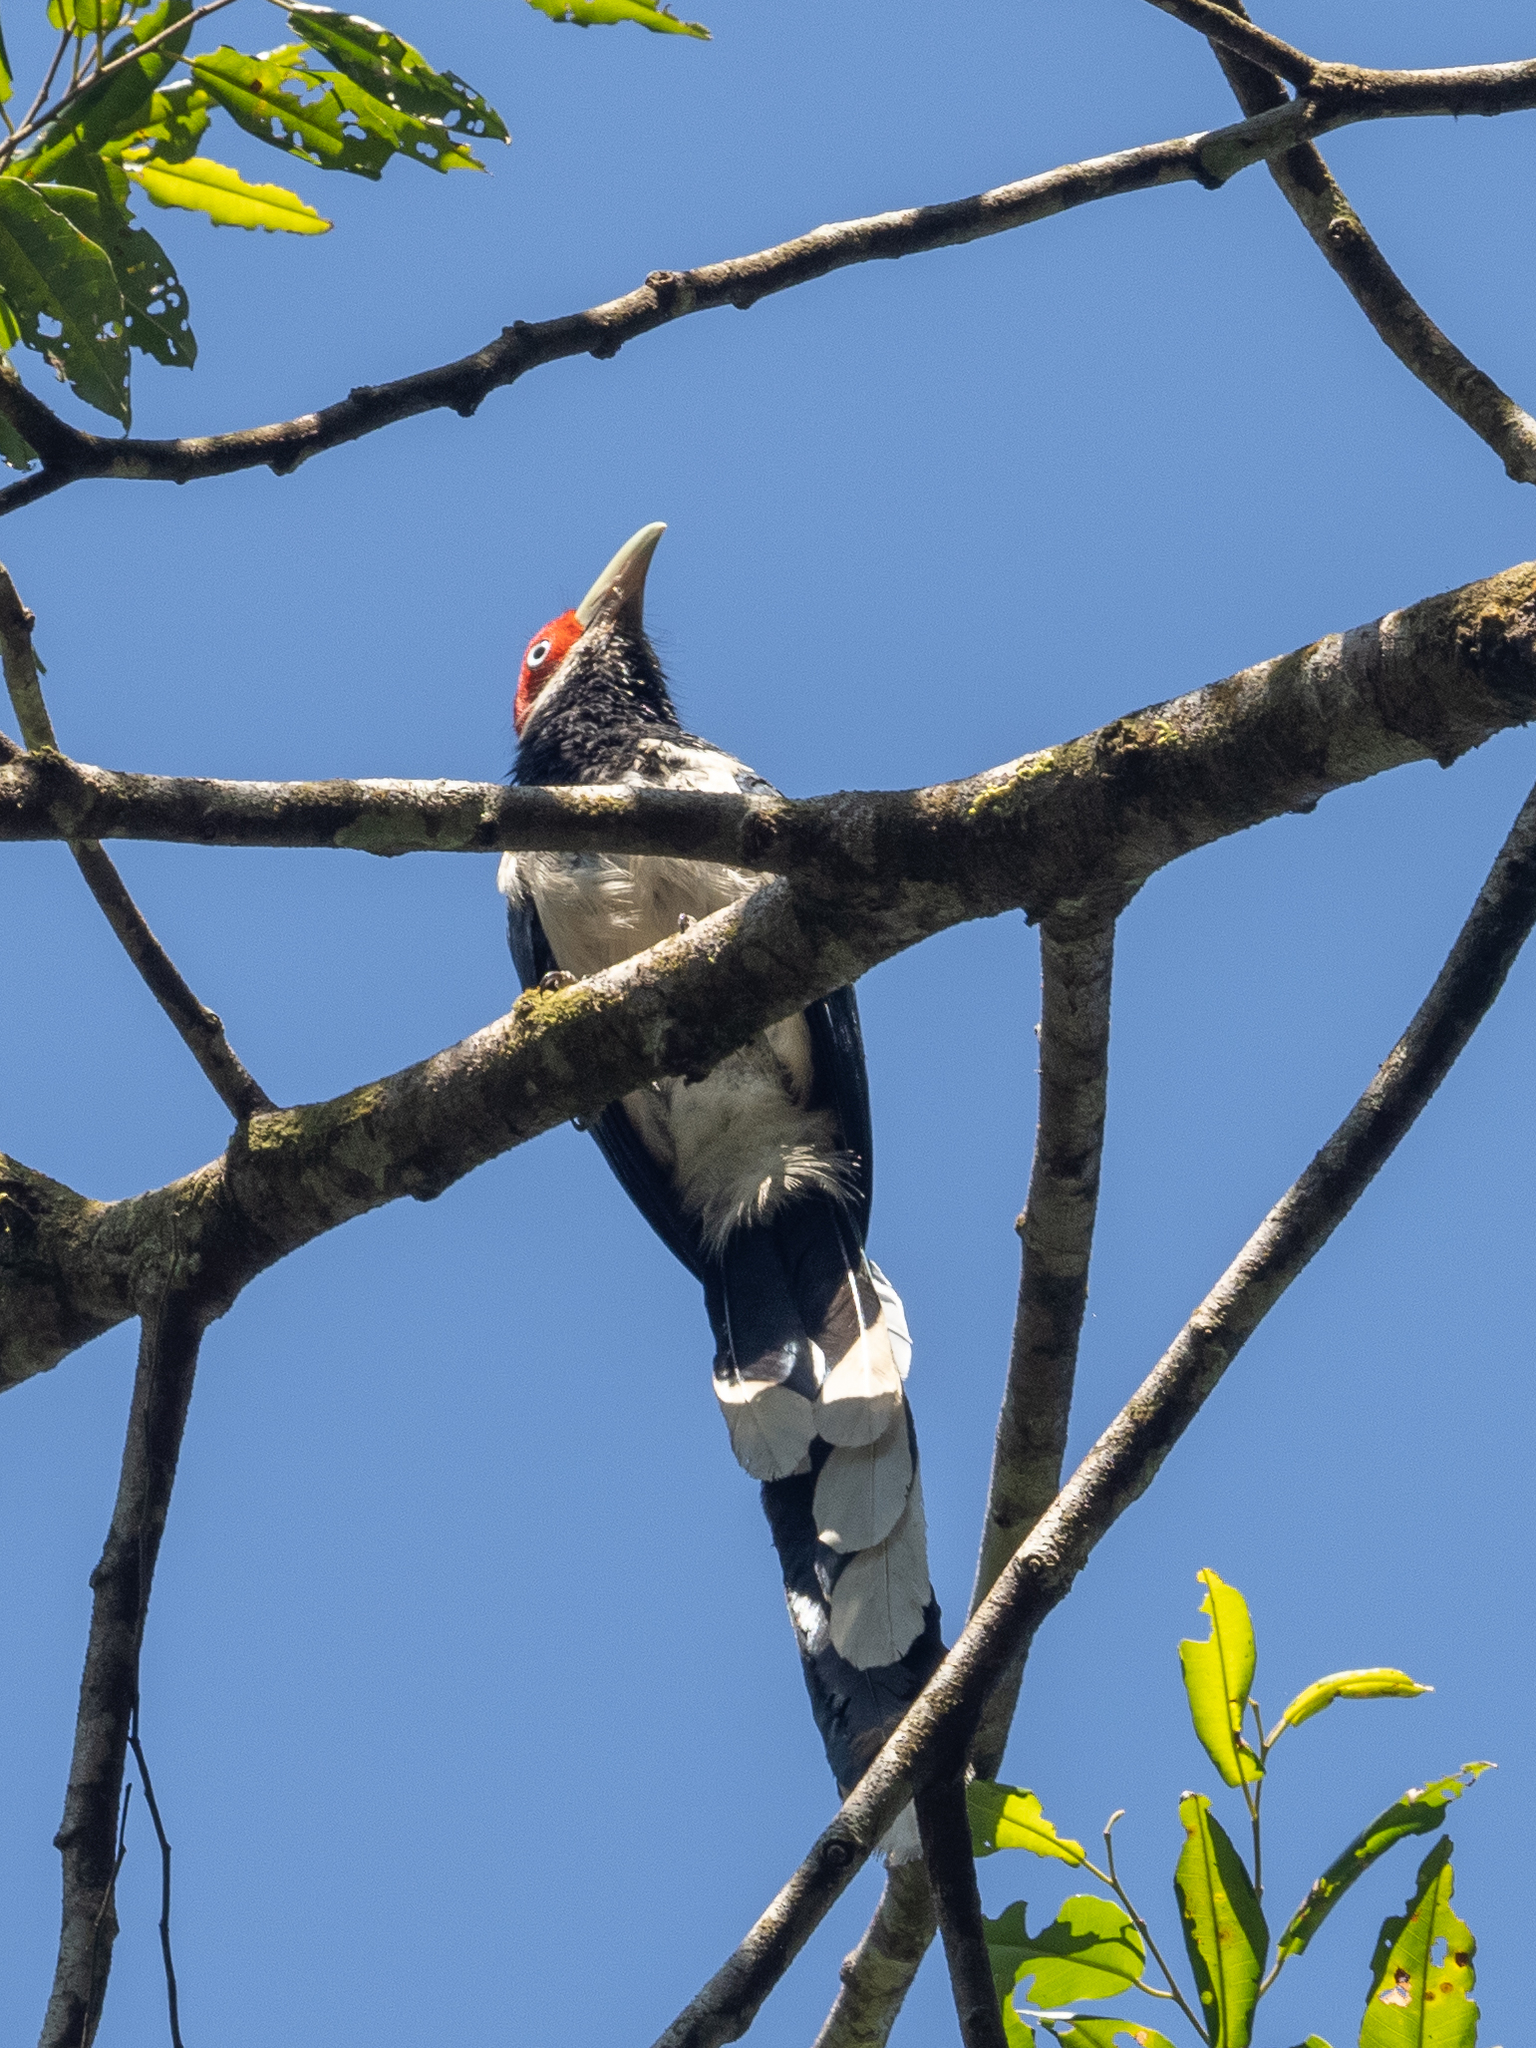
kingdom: Animalia
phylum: Chordata
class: Aves
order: Cuculiformes
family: Cuculidae
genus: Phaenicophaeus
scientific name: Phaenicophaeus pyrrhocephalus
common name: Red-faced malkoha
